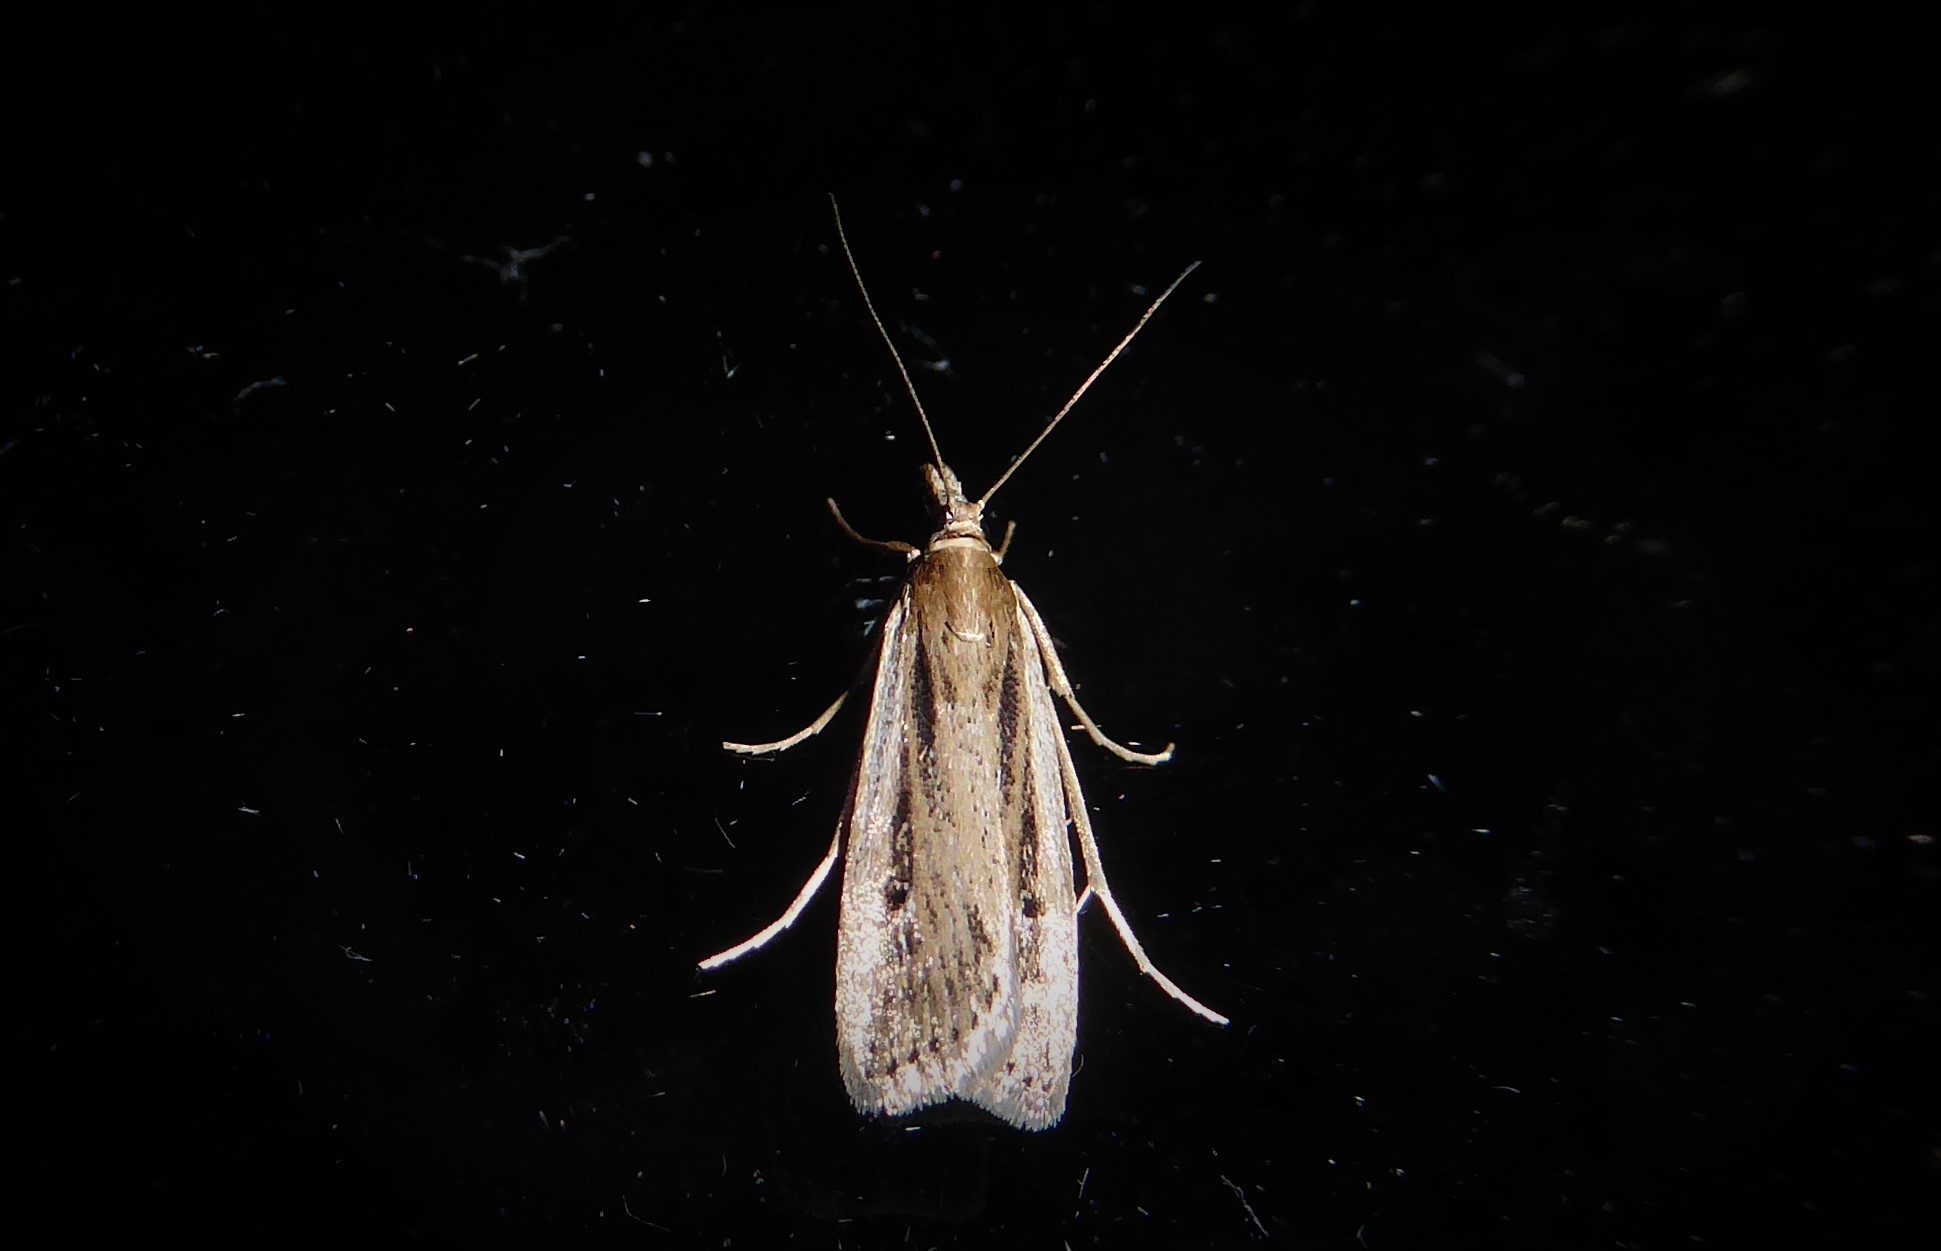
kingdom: Animalia
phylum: Arthropoda
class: Insecta
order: Lepidoptera
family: Crambidae
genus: Eudonia
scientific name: Eudonia sabulosella
